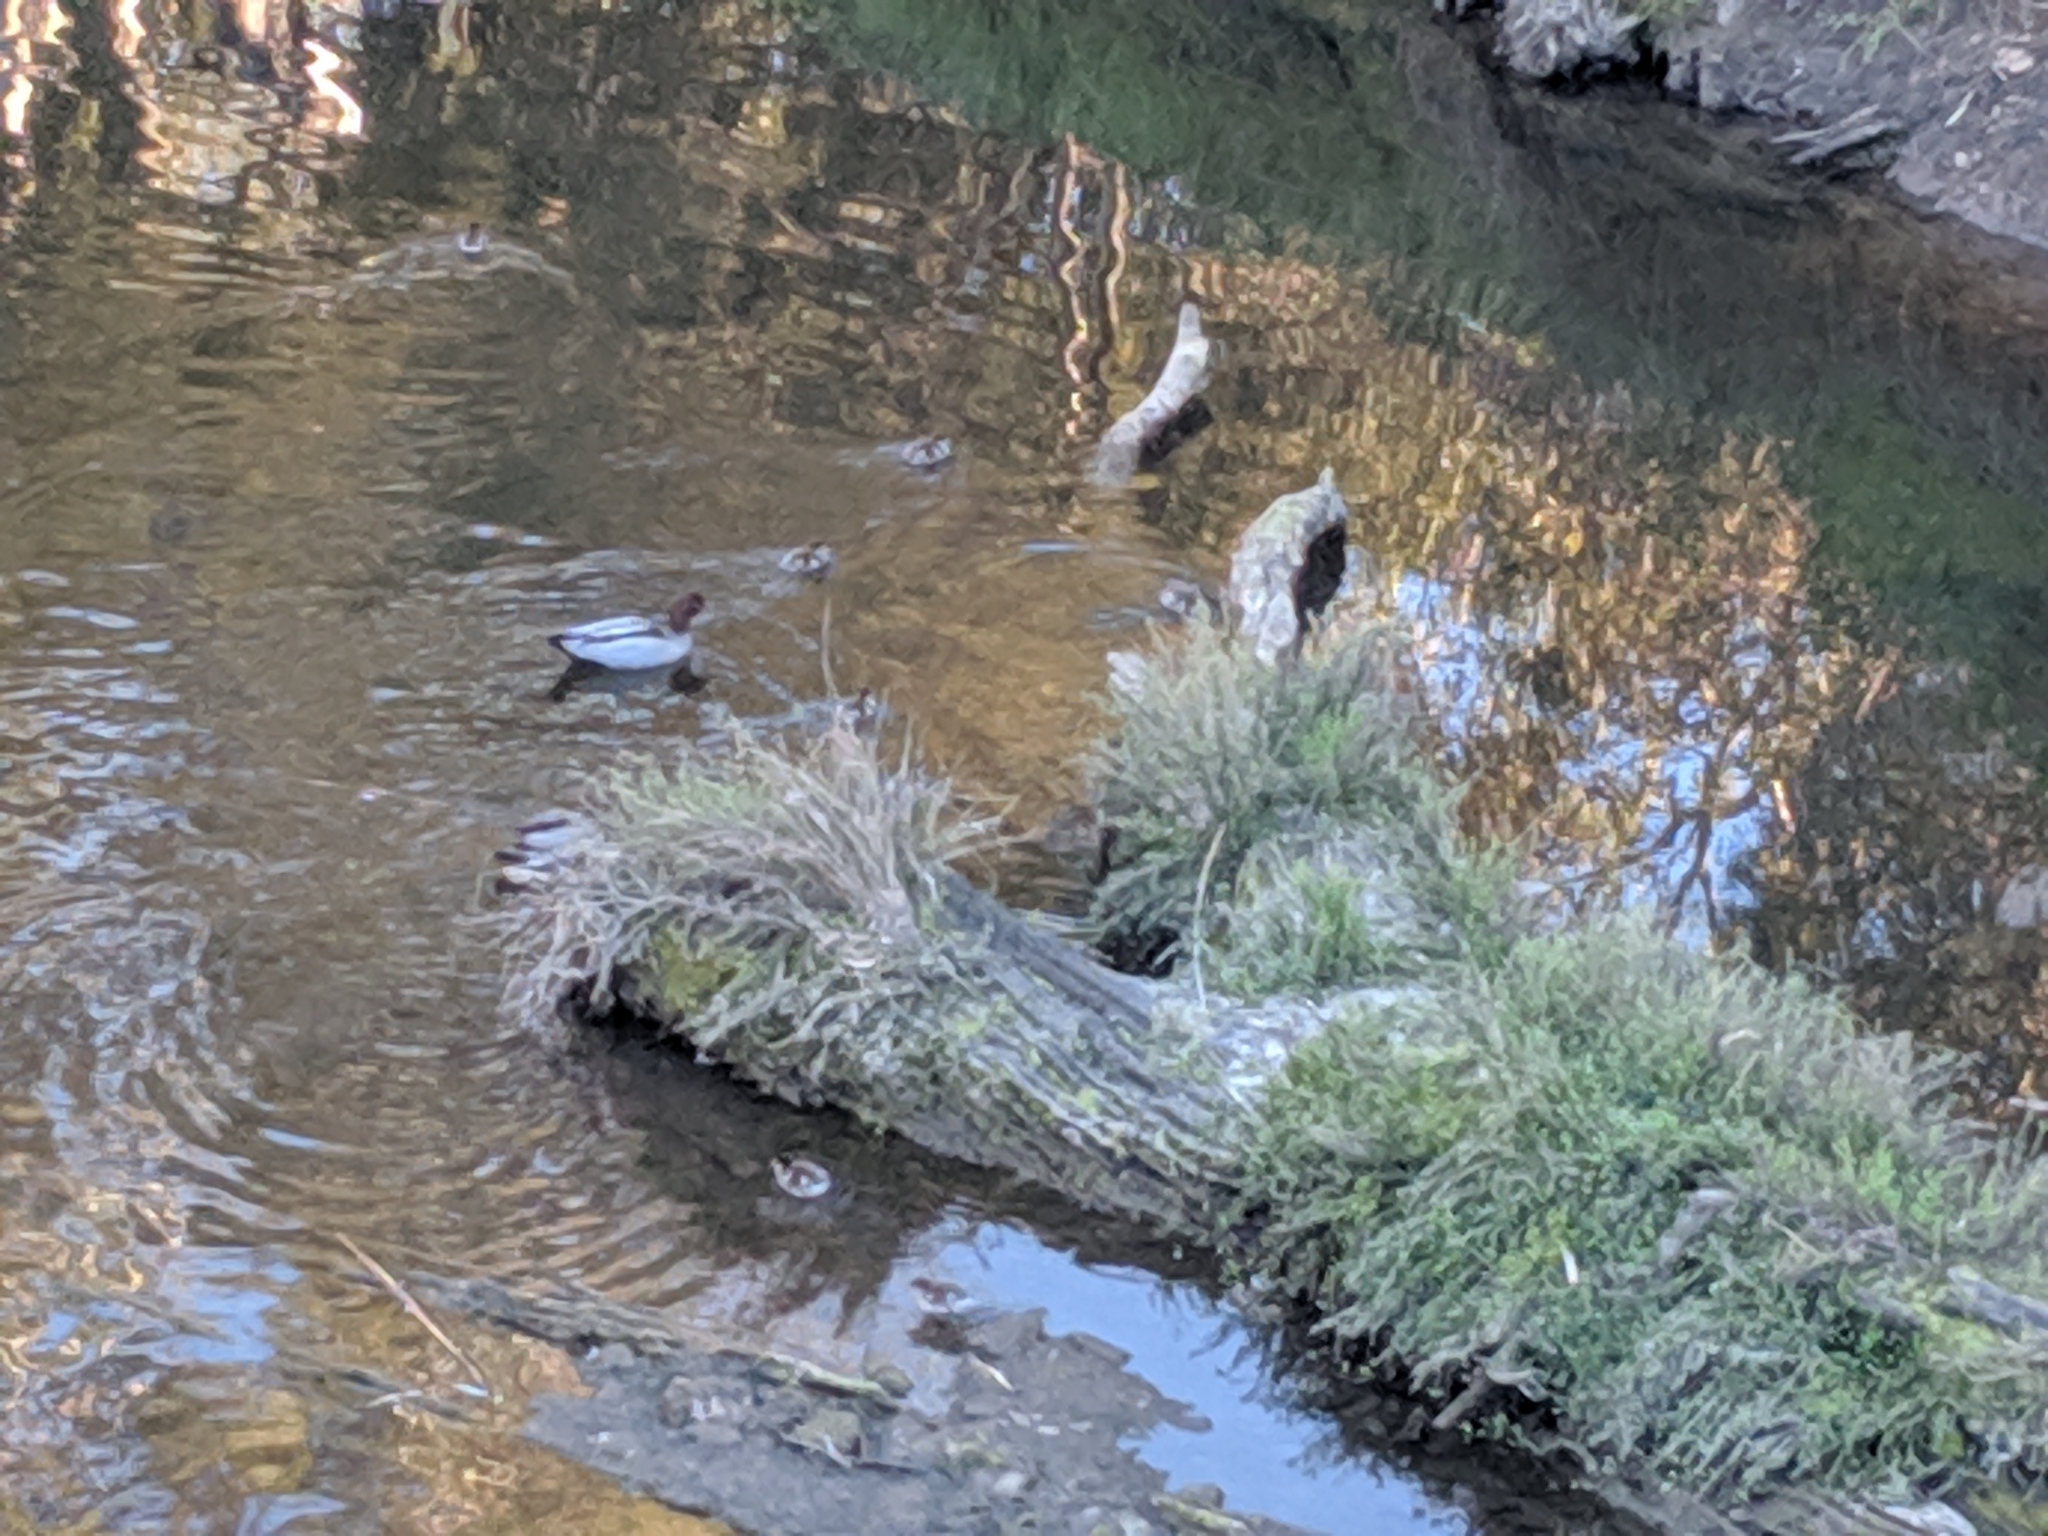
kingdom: Animalia
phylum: Chordata
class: Aves
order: Anseriformes
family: Anatidae
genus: Chenonetta
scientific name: Chenonetta jubata
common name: Maned duck
